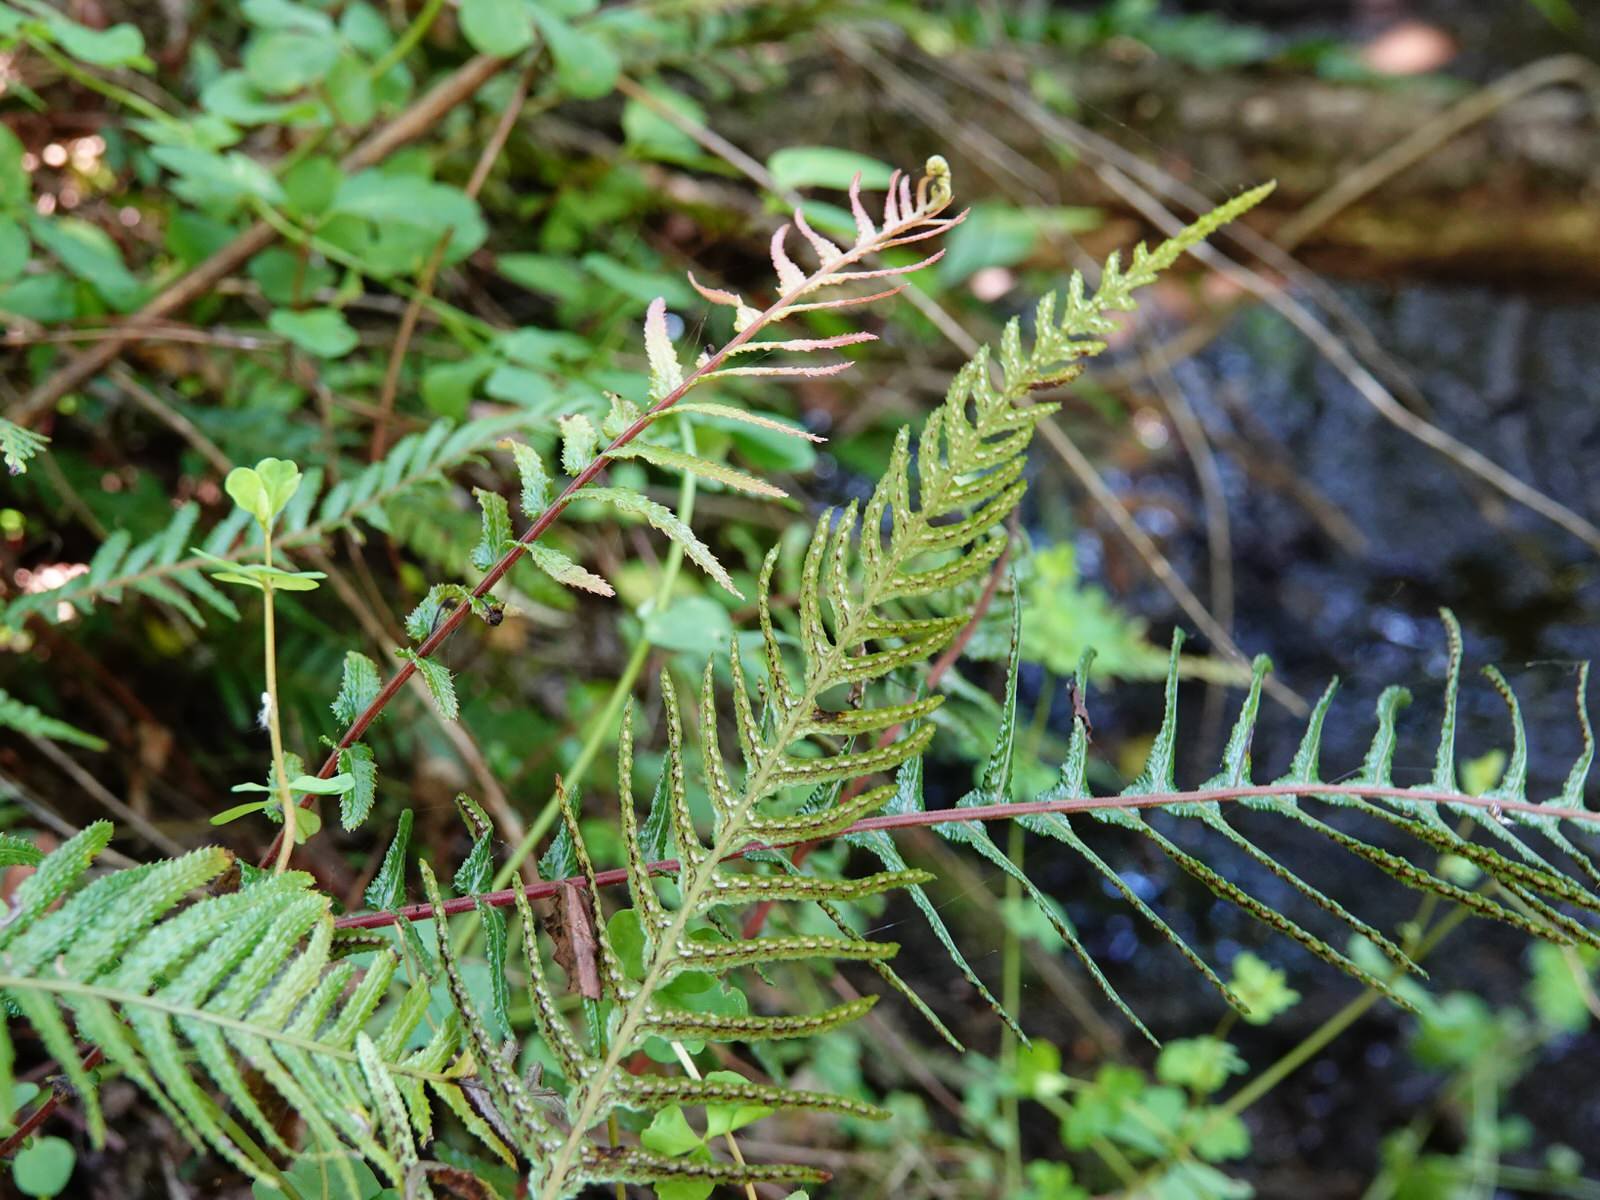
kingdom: Plantae
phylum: Tracheophyta
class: Polypodiopsida
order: Polypodiales
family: Blechnaceae
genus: Doodia
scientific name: Doodia australis
